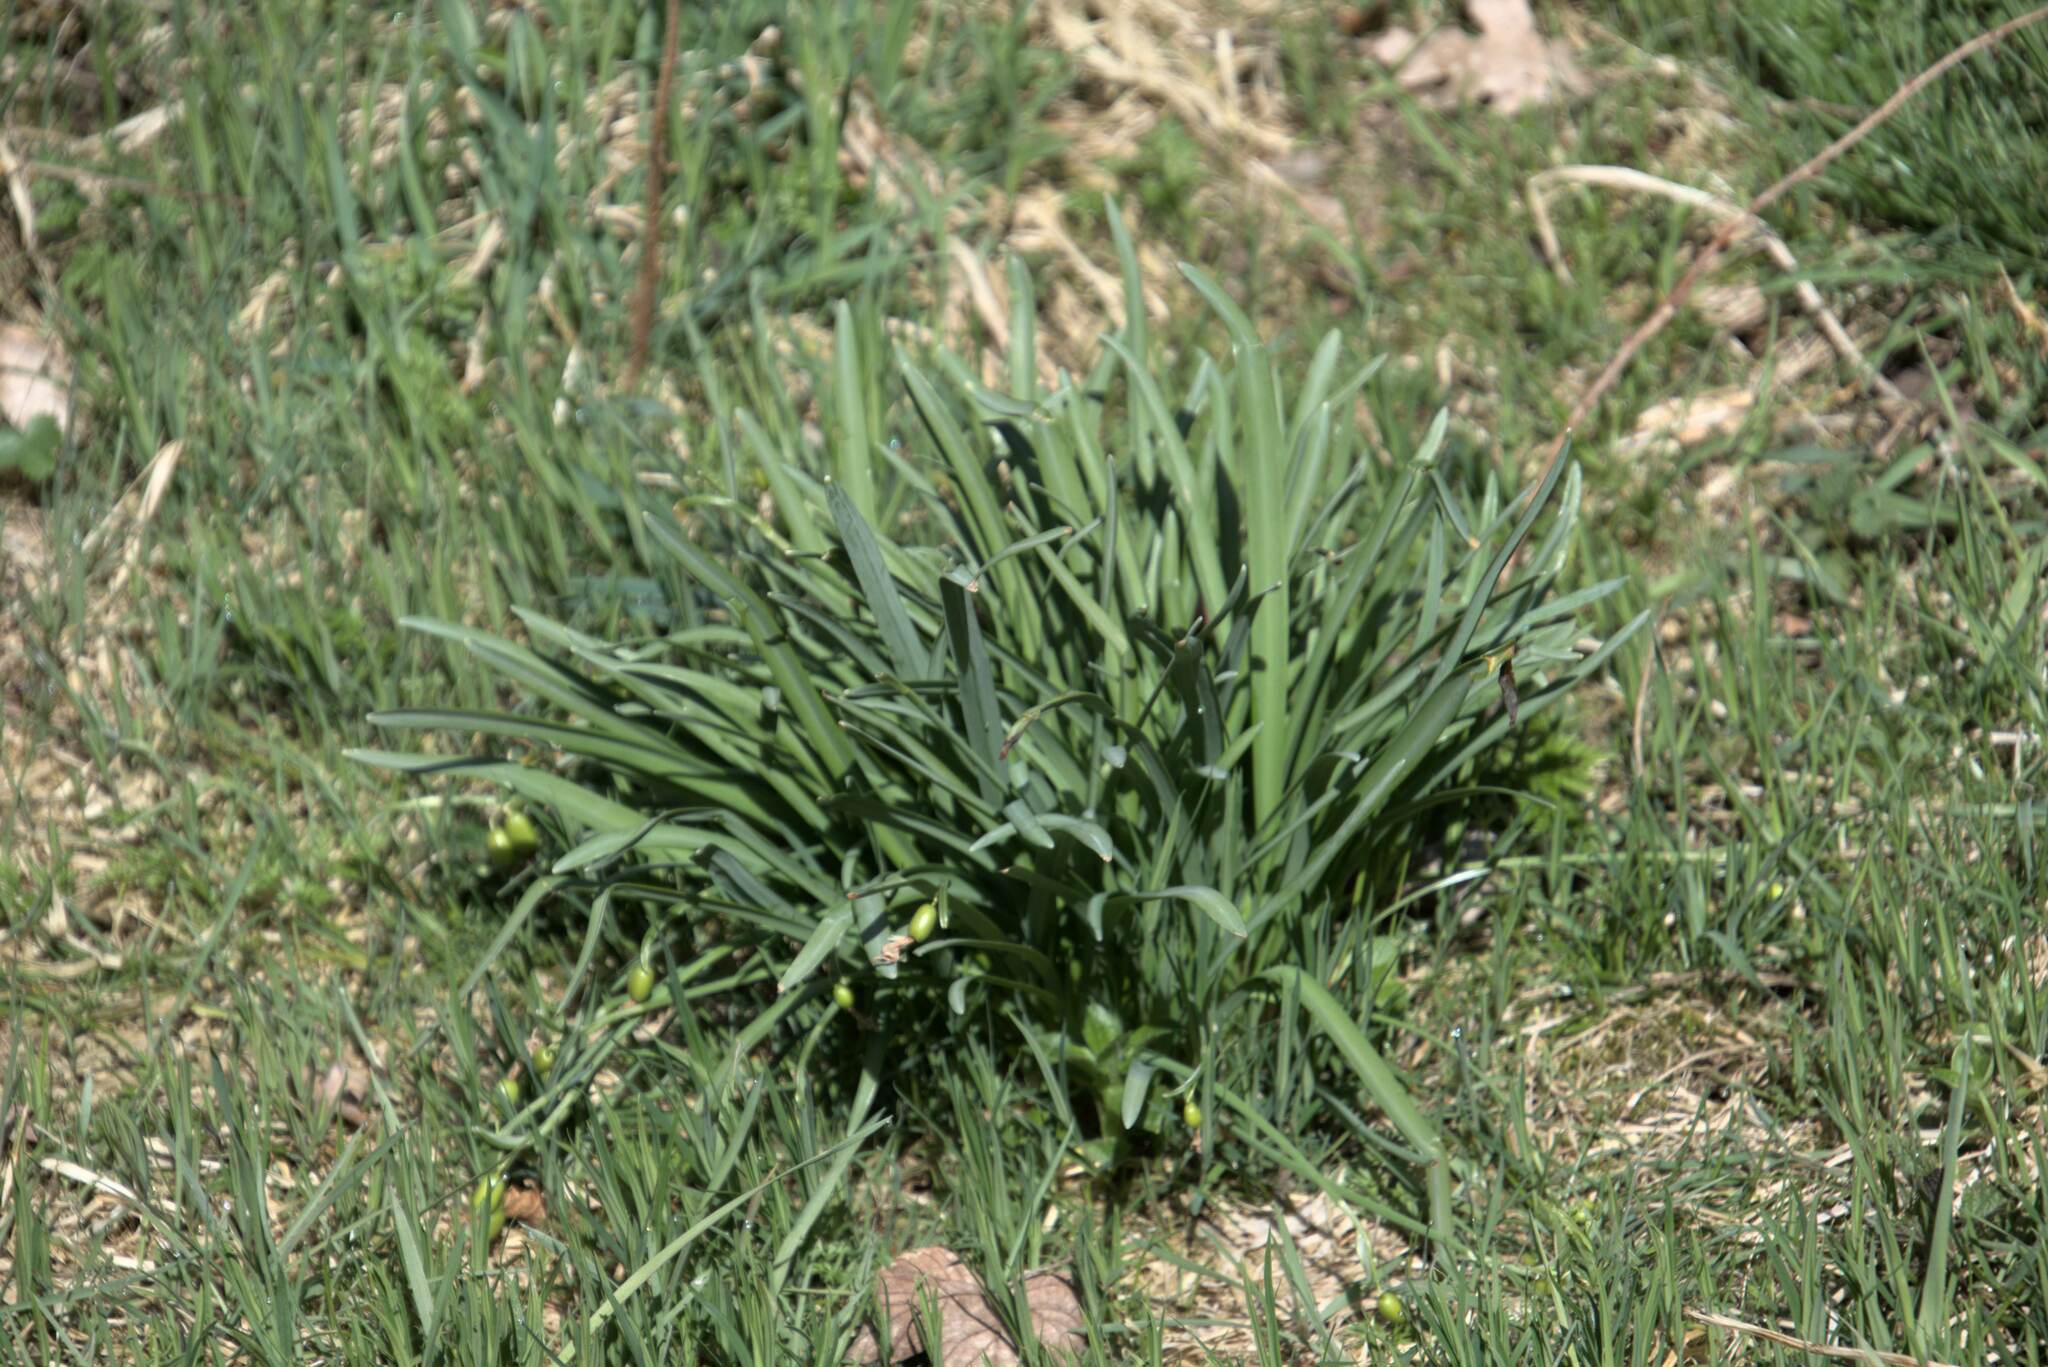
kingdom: Plantae
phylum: Tracheophyta
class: Liliopsida
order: Asparagales
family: Amaryllidaceae
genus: Galanthus
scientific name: Galanthus nivalis
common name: Snowdrop
